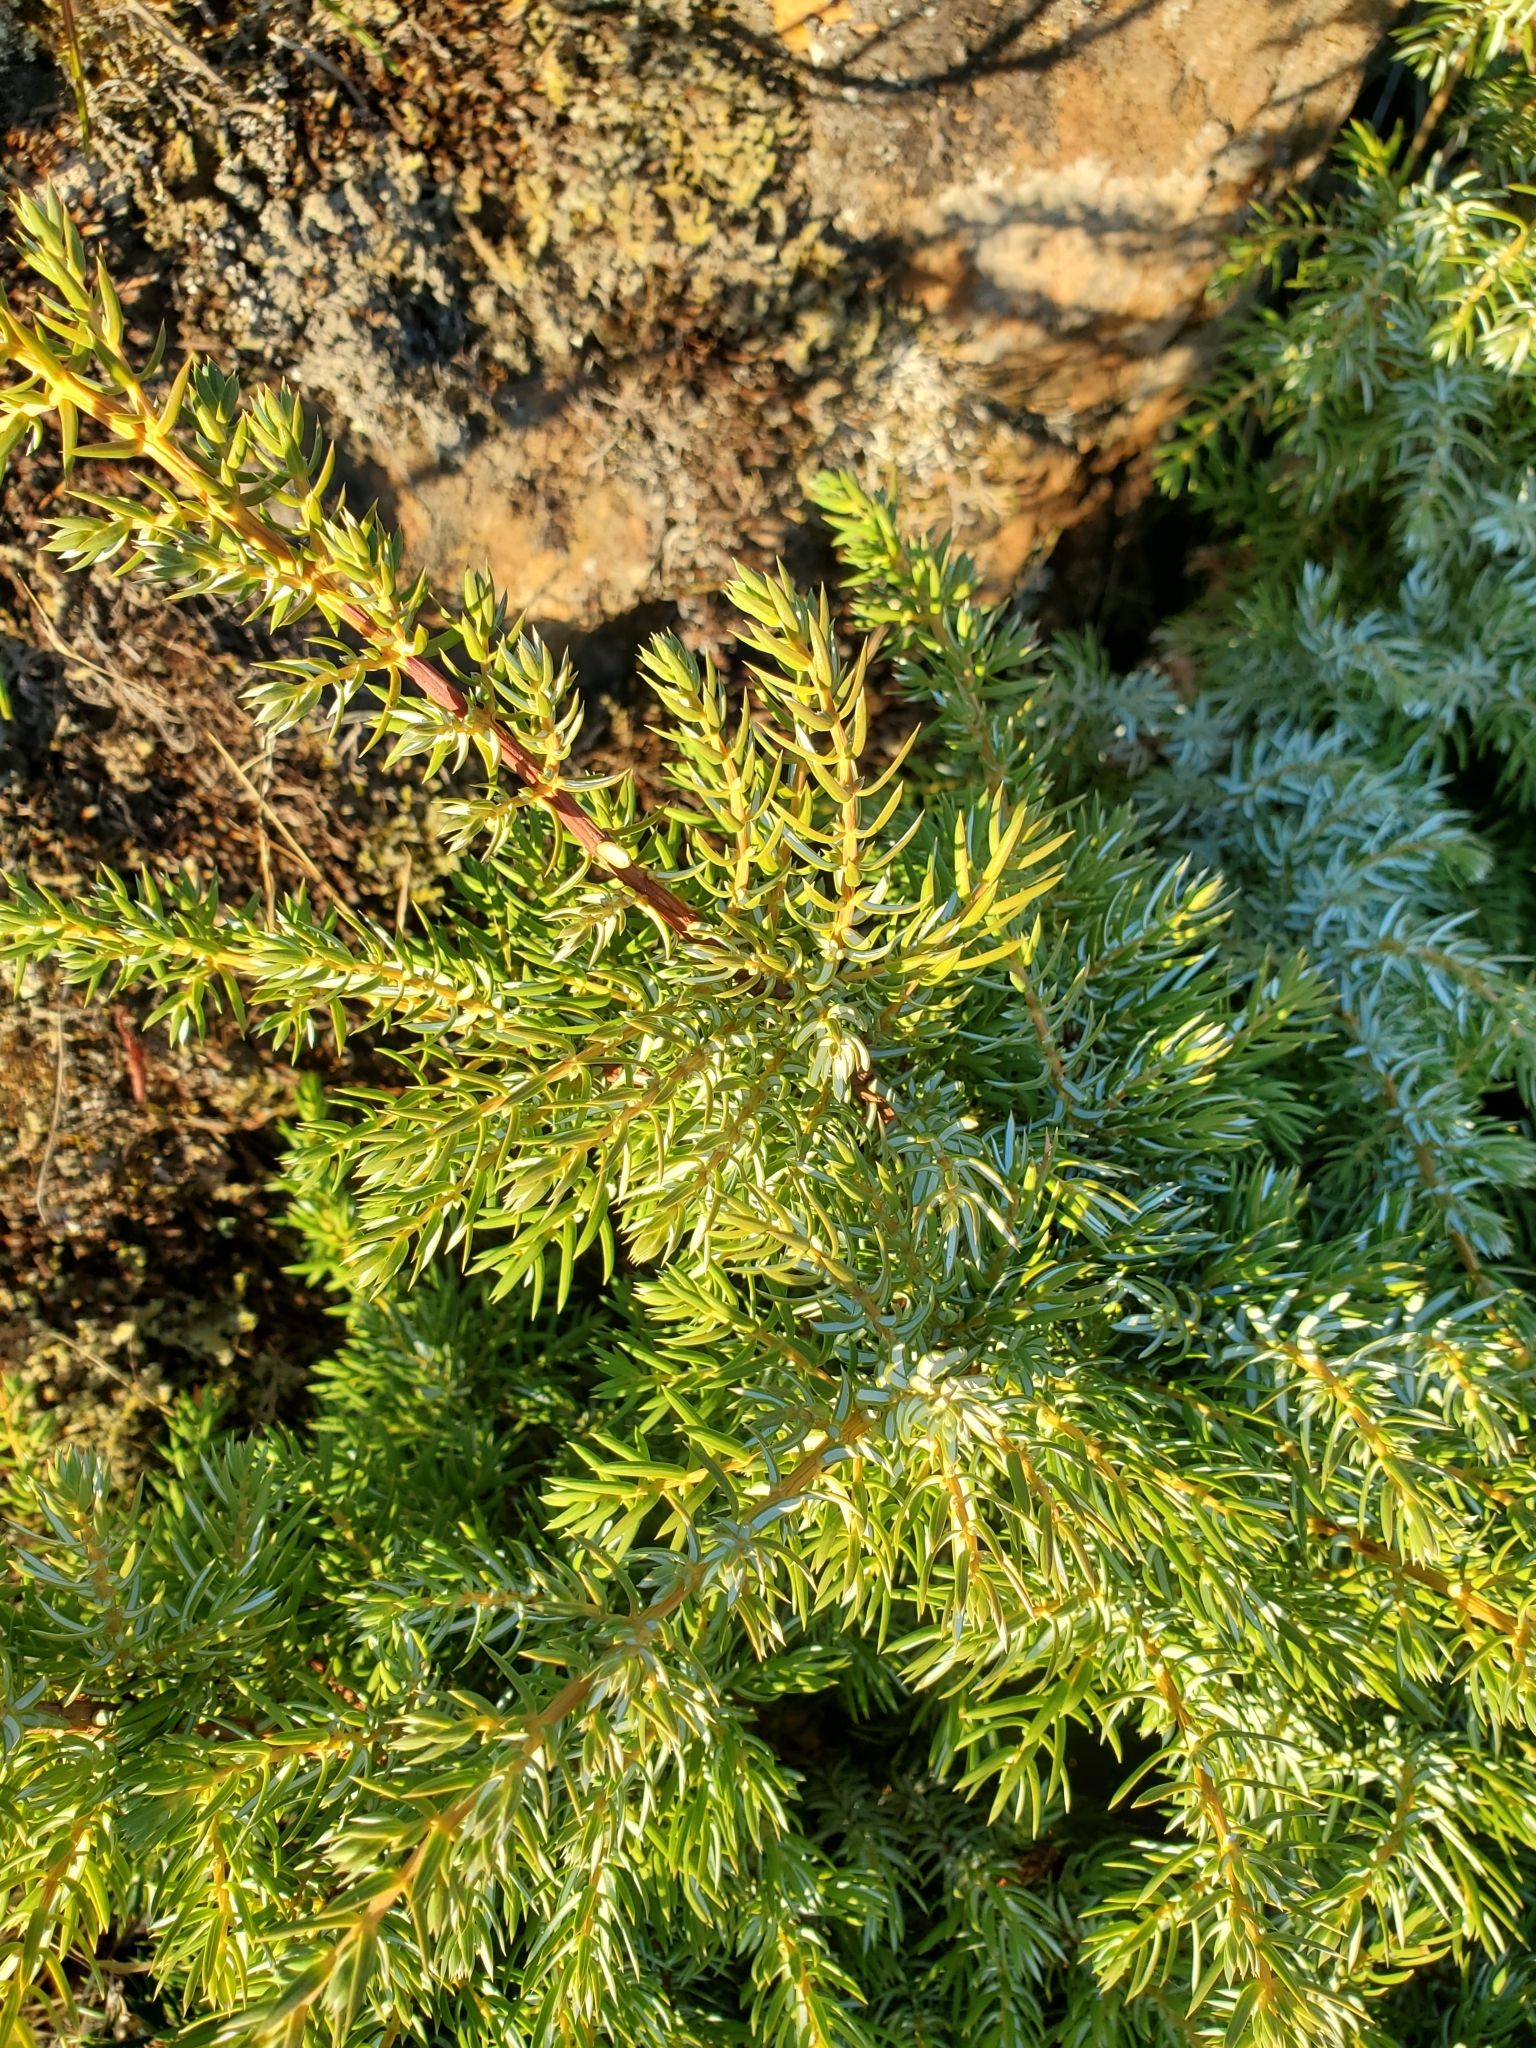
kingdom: Plantae
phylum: Tracheophyta
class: Pinopsida
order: Pinales
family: Cupressaceae
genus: Juniperus
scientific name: Juniperus communis
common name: Common juniper
